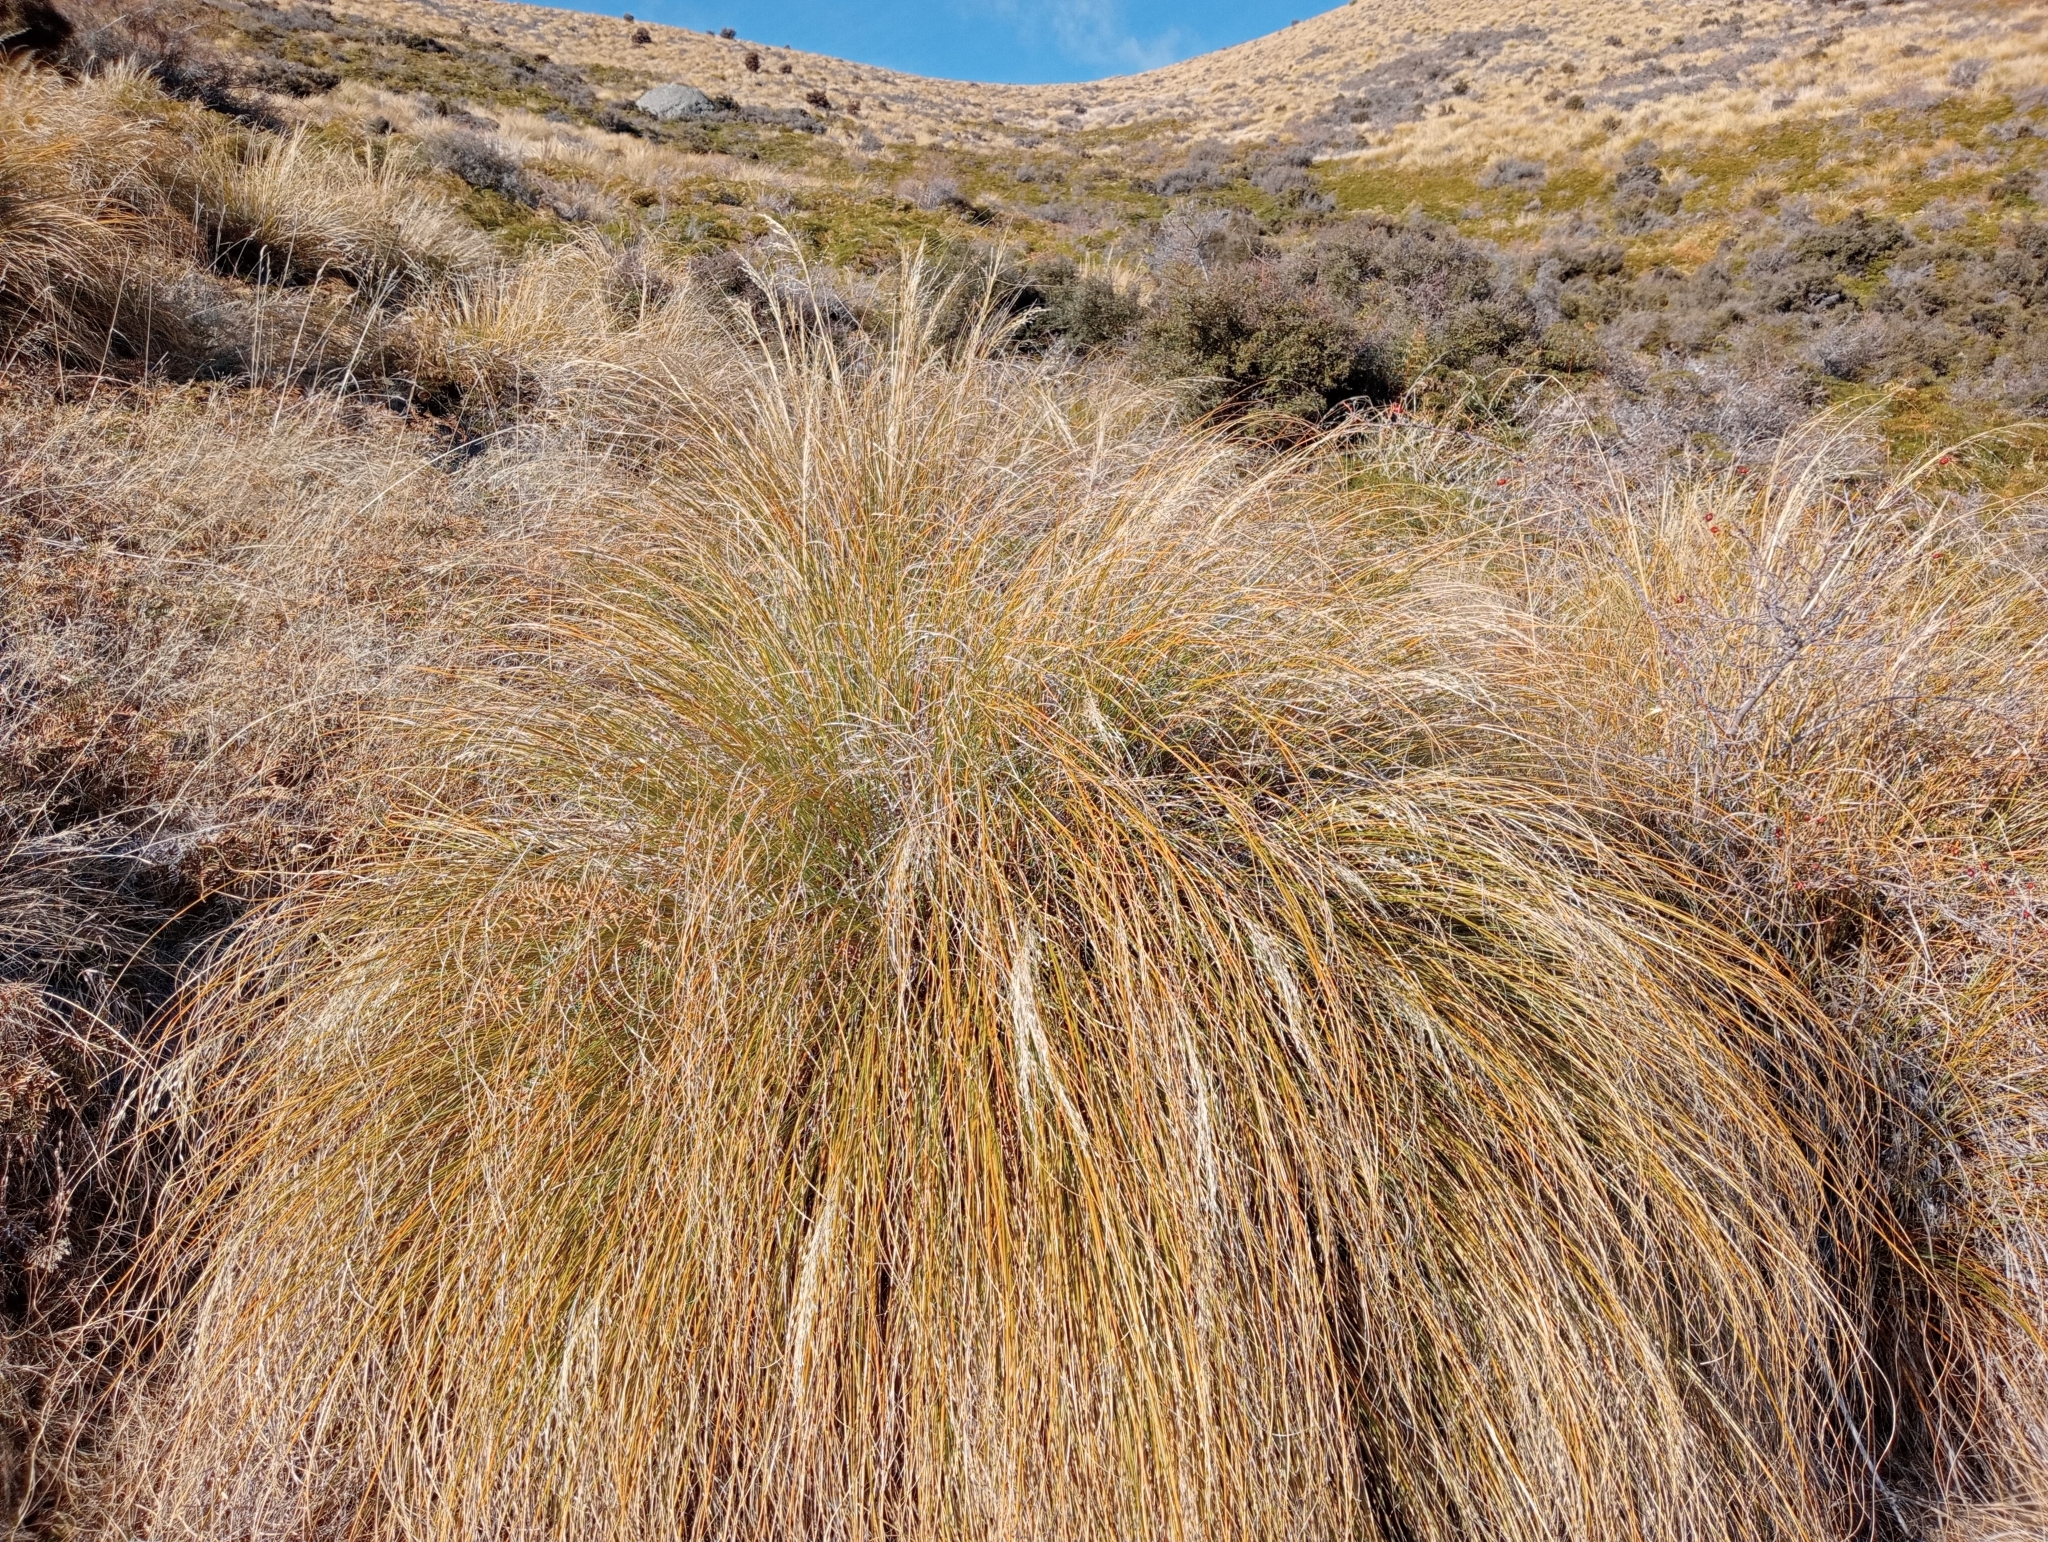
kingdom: Plantae
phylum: Tracheophyta
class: Liliopsida
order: Poales
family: Poaceae
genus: Chionochloa
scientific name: Chionochloa rigida
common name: Narrow leaved snow tussock
